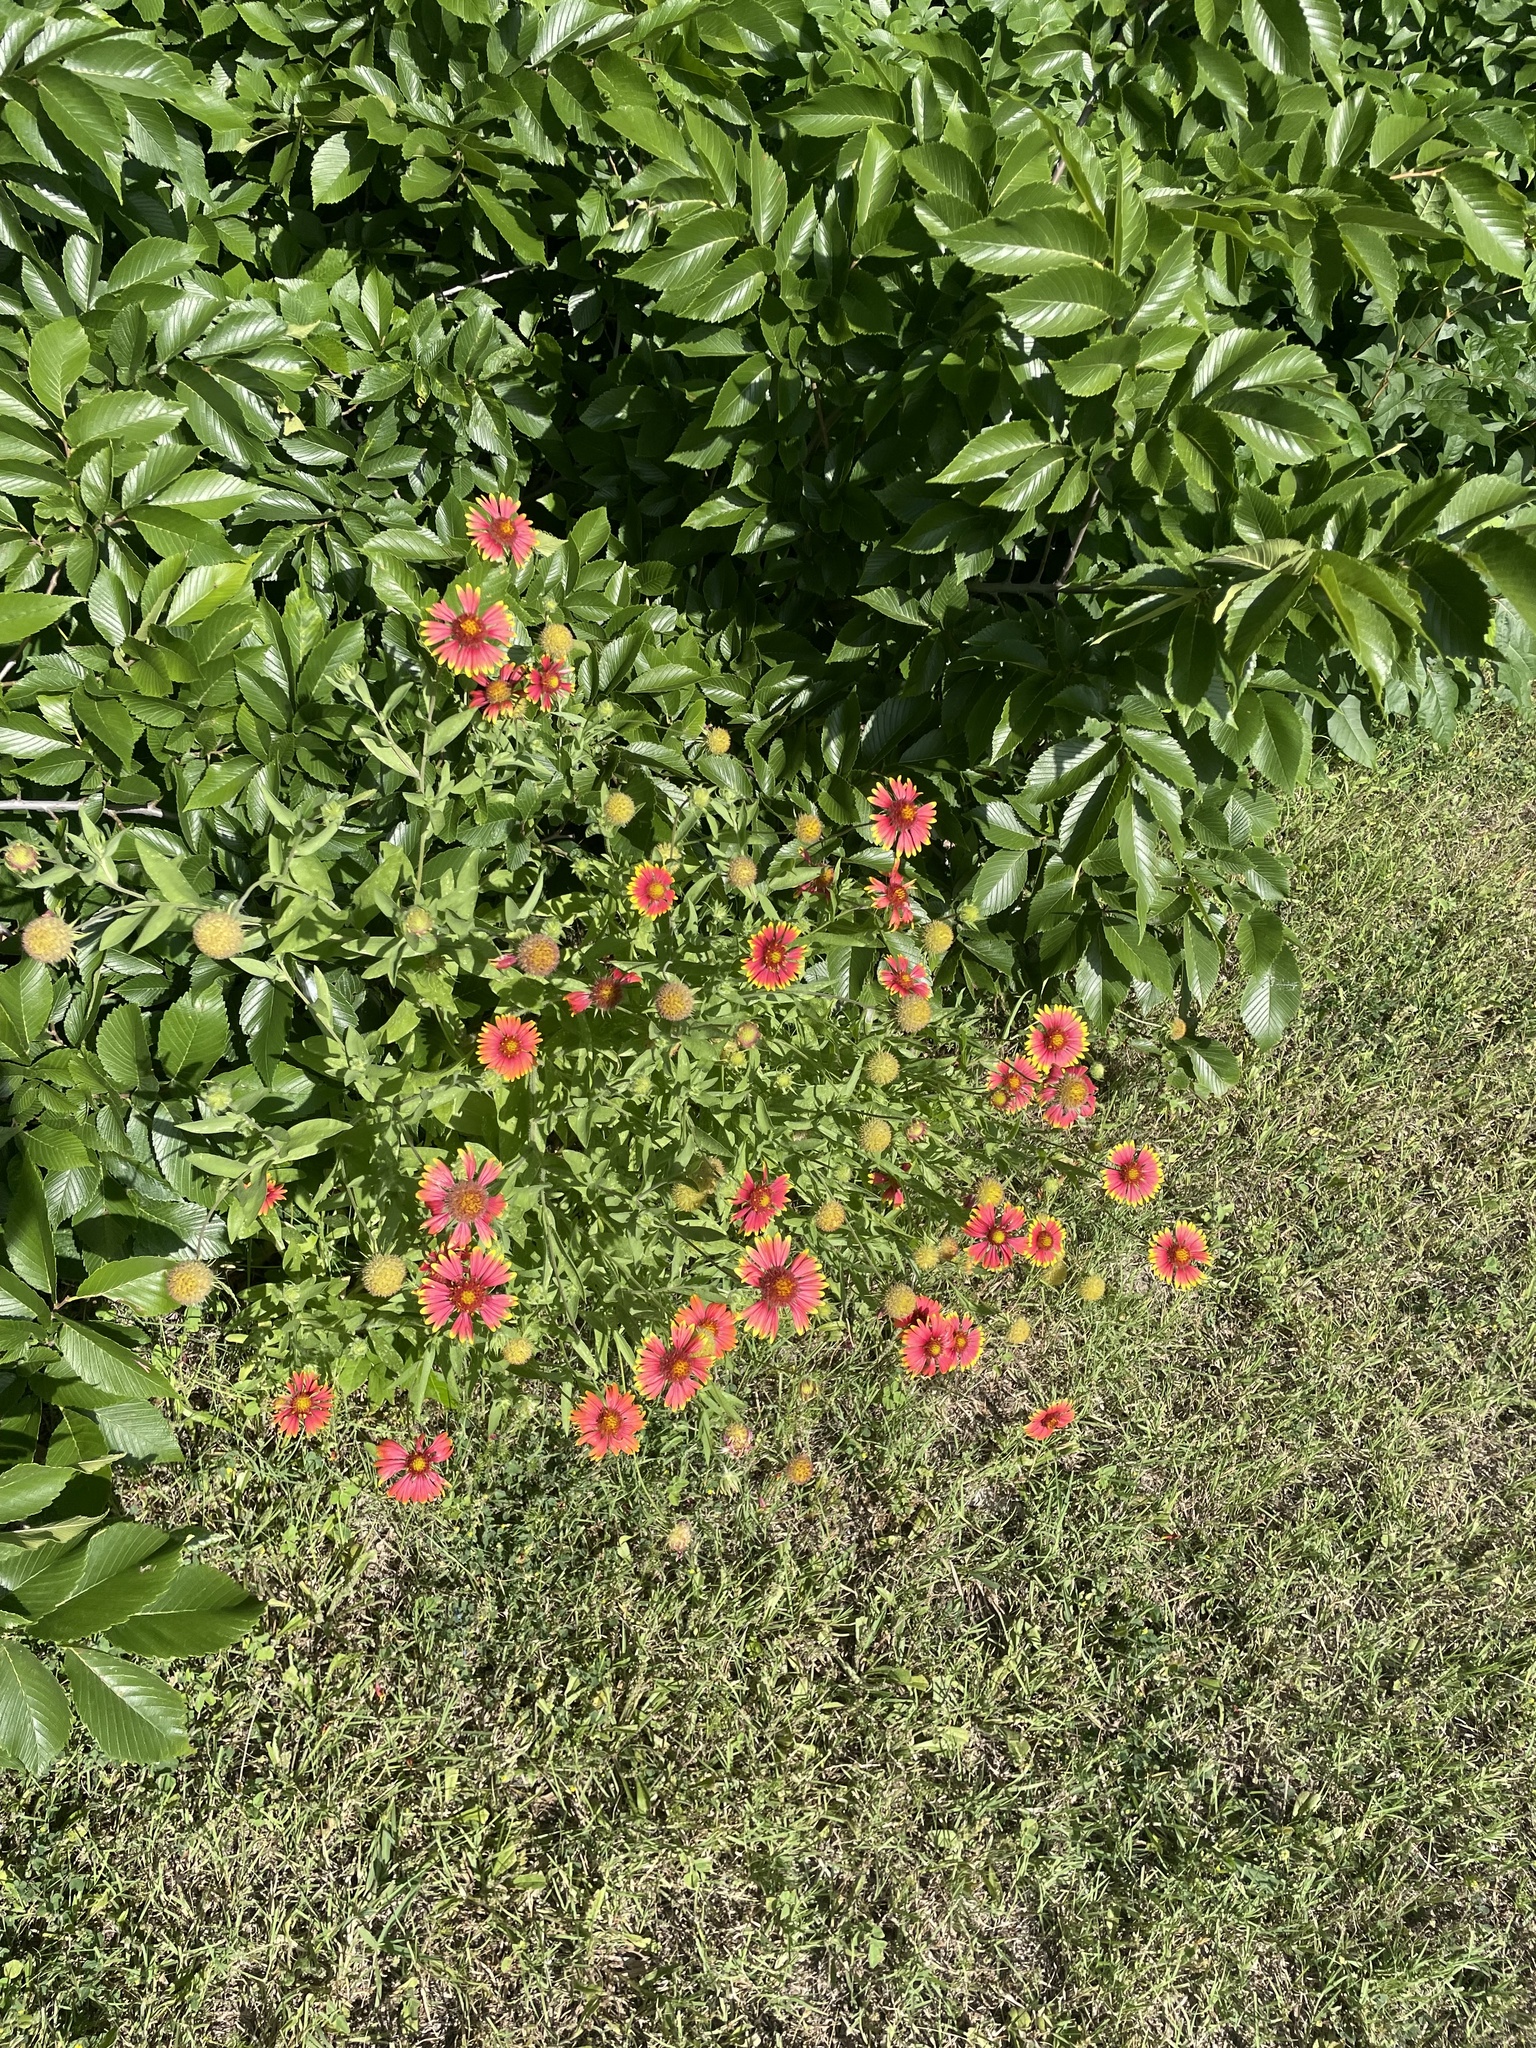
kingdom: Plantae
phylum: Tracheophyta
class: Magnoliopsida
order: Asterales
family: Asteraceae
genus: Gaillardia
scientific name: Gaillardia pulchella
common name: Firewheel
